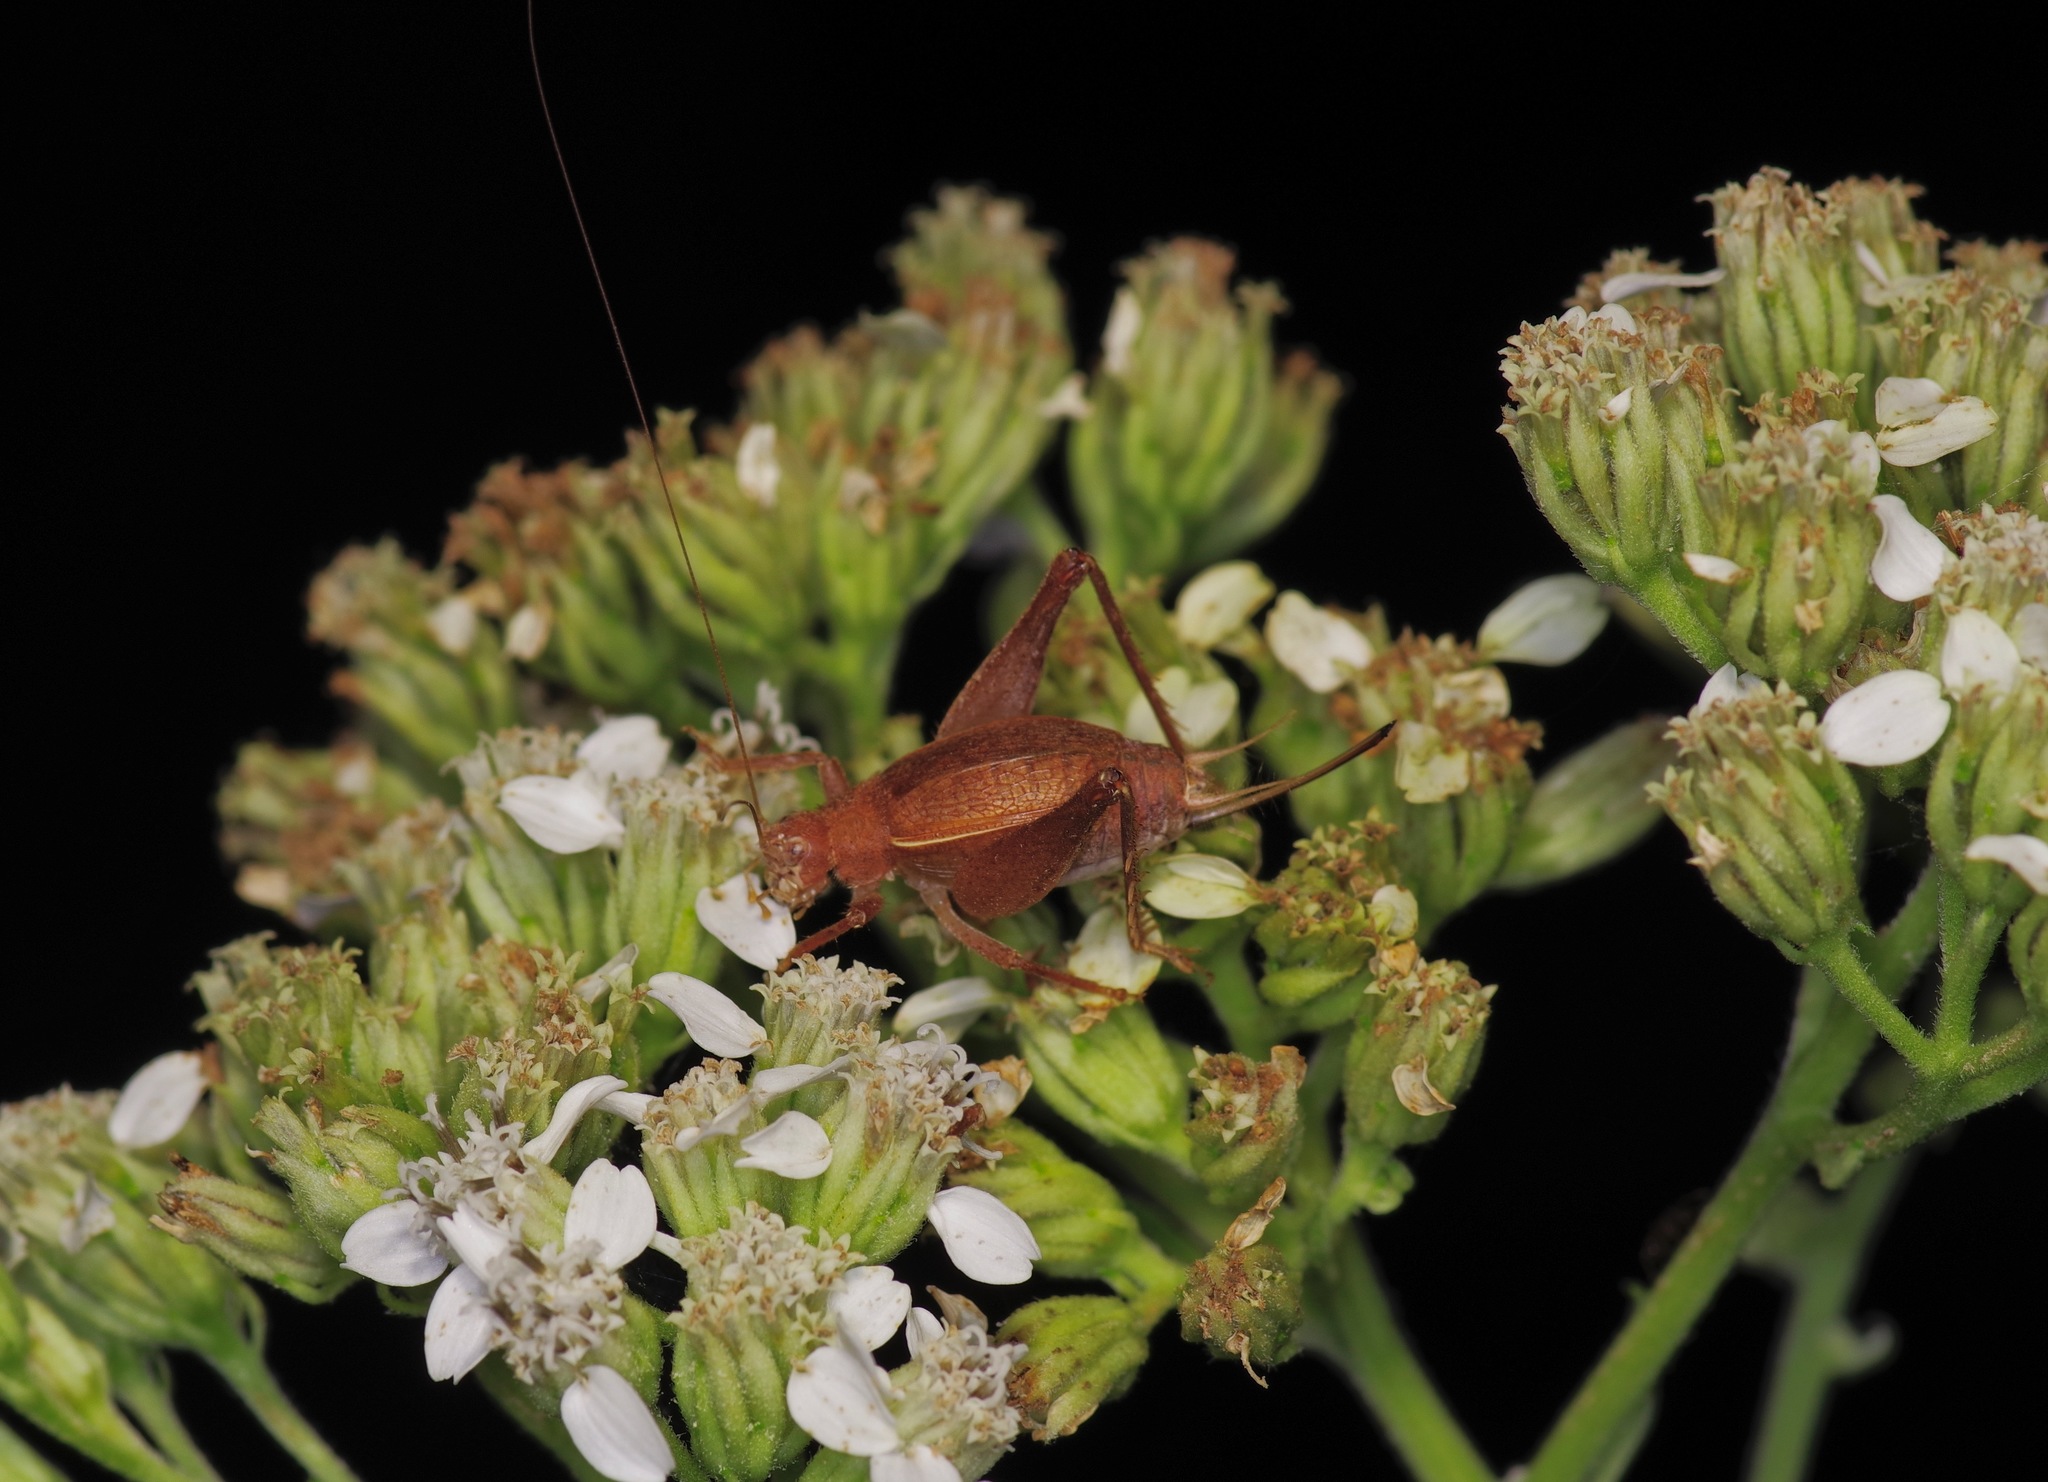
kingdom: Animalia
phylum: Arthropoda
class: Insecta
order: Orthoptera
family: Gryllidae
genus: Hapithus
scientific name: Hapithus agitator
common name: Restless bush cricket
